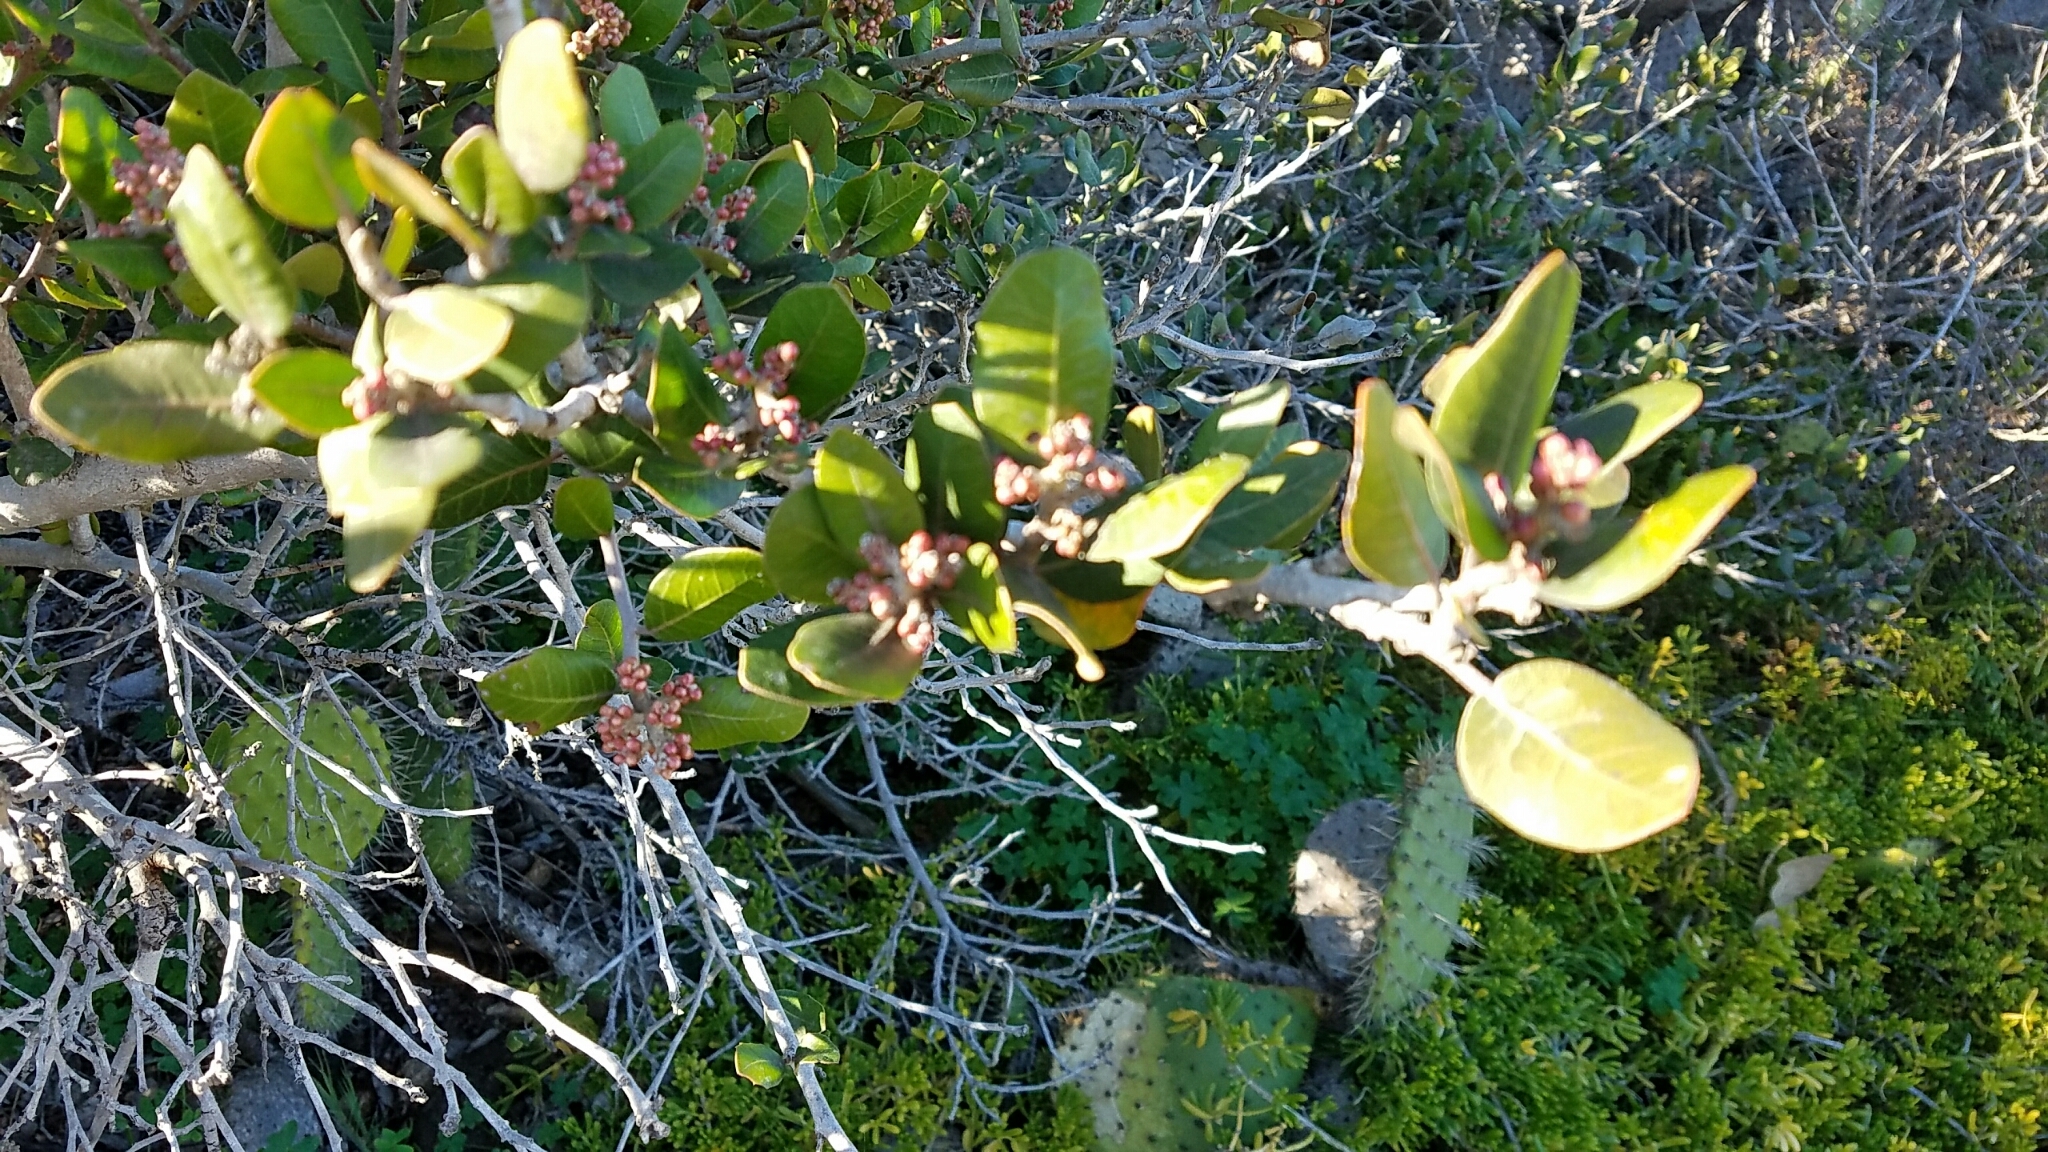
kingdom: Plantae
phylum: Tracheophyta
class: Magnoliopsida
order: Sapindales
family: Anacardiaceae
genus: Rhus
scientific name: Rhus integrifolia
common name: Lemonade sumac
